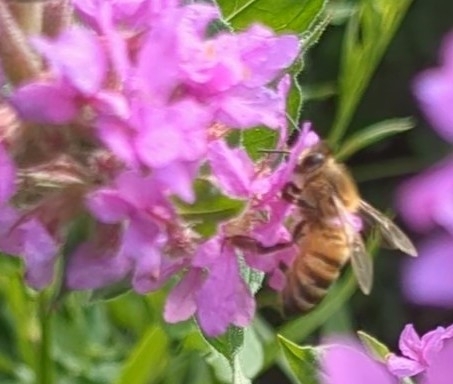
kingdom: Animalia
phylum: Arthropoda
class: Insecta
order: Hymenoptera
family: Apidae
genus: Apis
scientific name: Apis mellifera
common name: Honey bee
